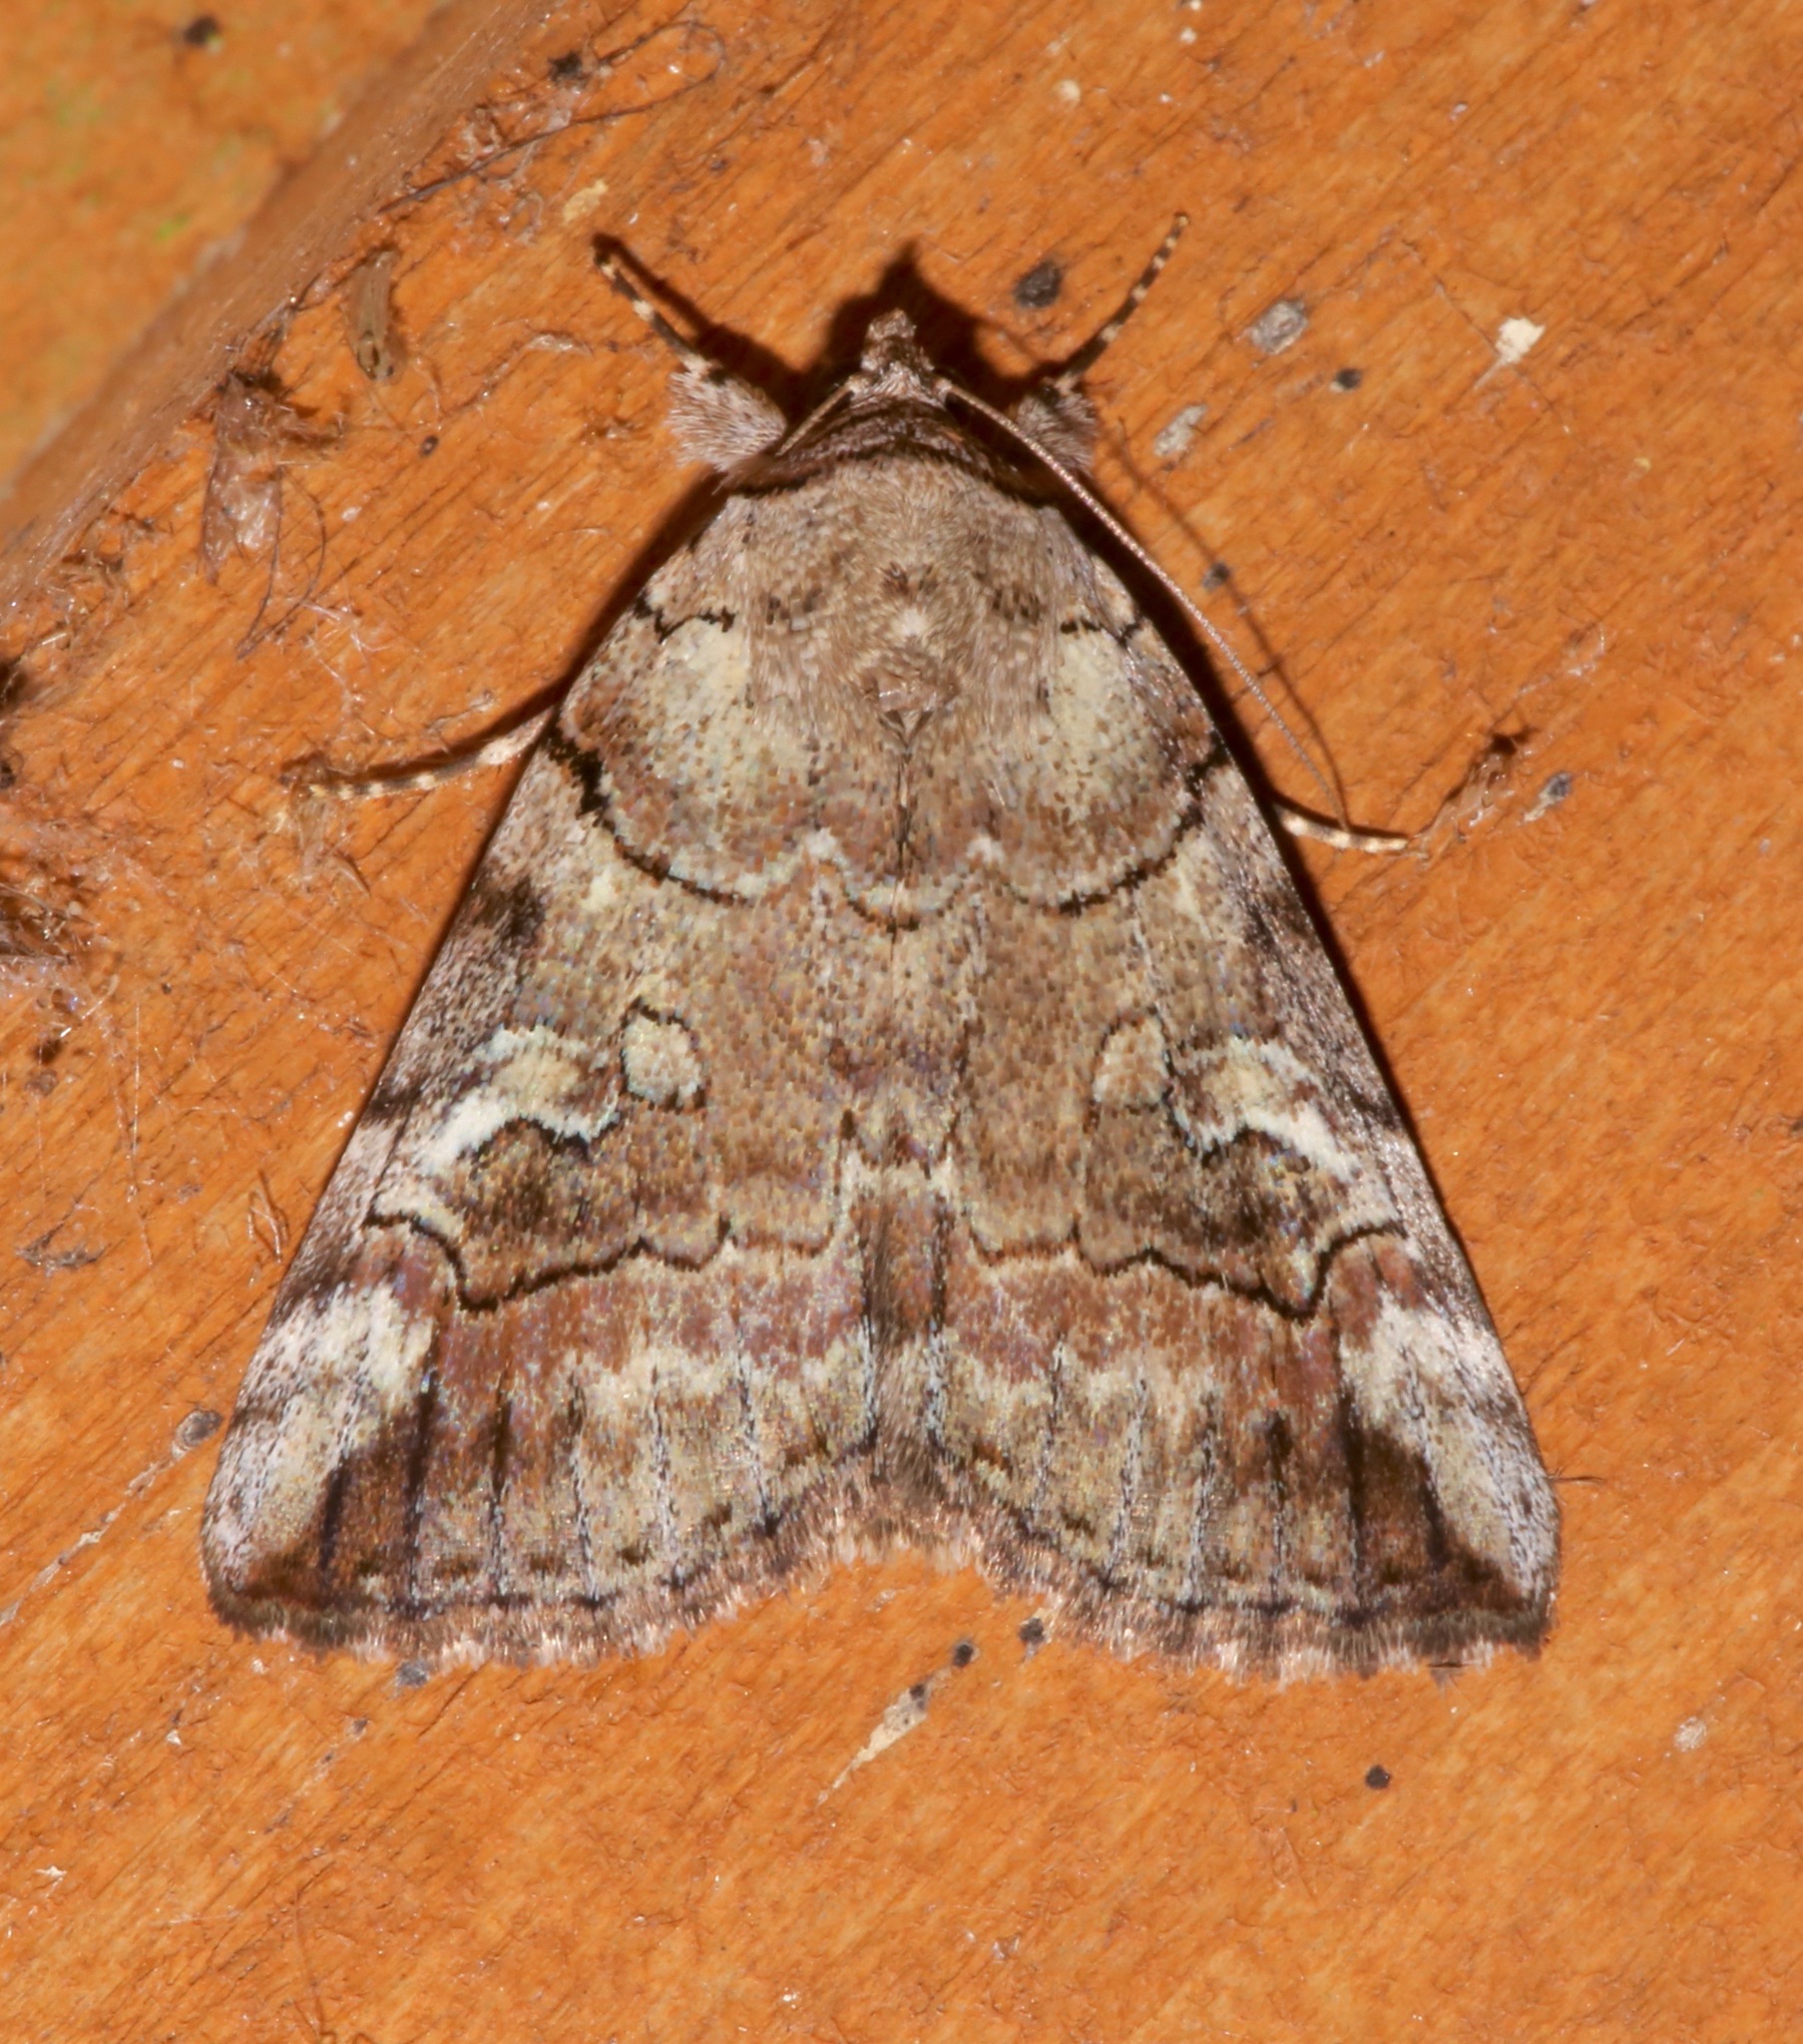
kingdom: Animalia
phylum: Arthropoda
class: Insecta
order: Lepidoptera
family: Erebidae
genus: Catocala
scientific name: Catocala similis
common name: Similar underwing
